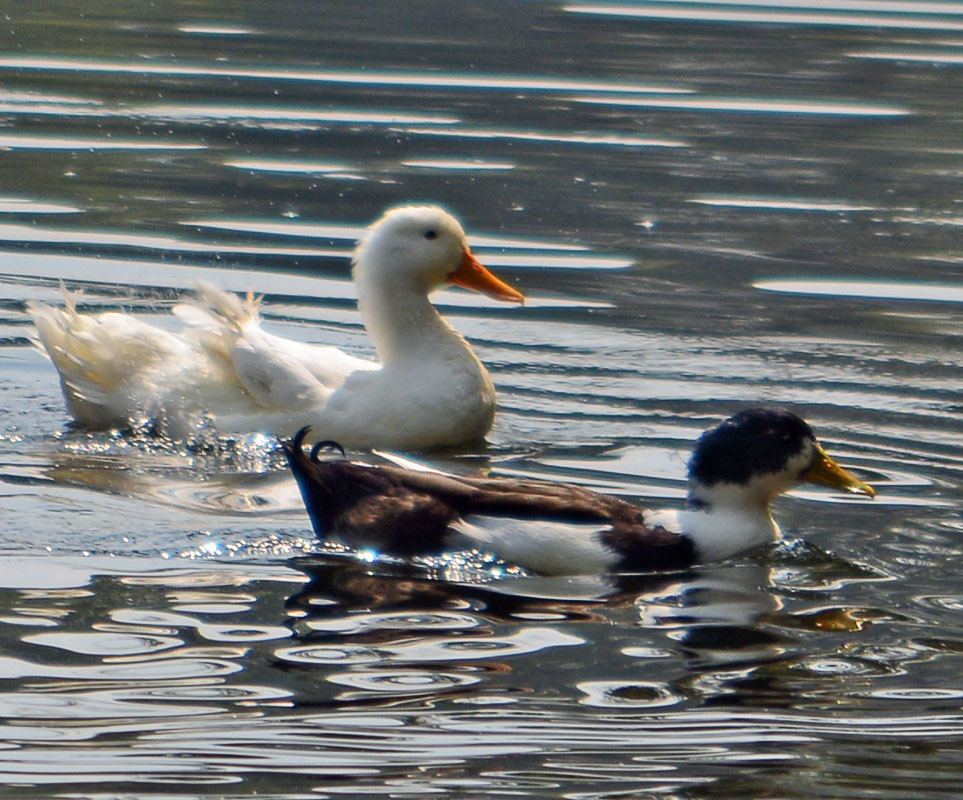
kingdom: Animalia
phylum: Chordata
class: Aves
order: Anseriformes
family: Anatidae
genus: Anas
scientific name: Anas platyrhynchos
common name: Mallard
